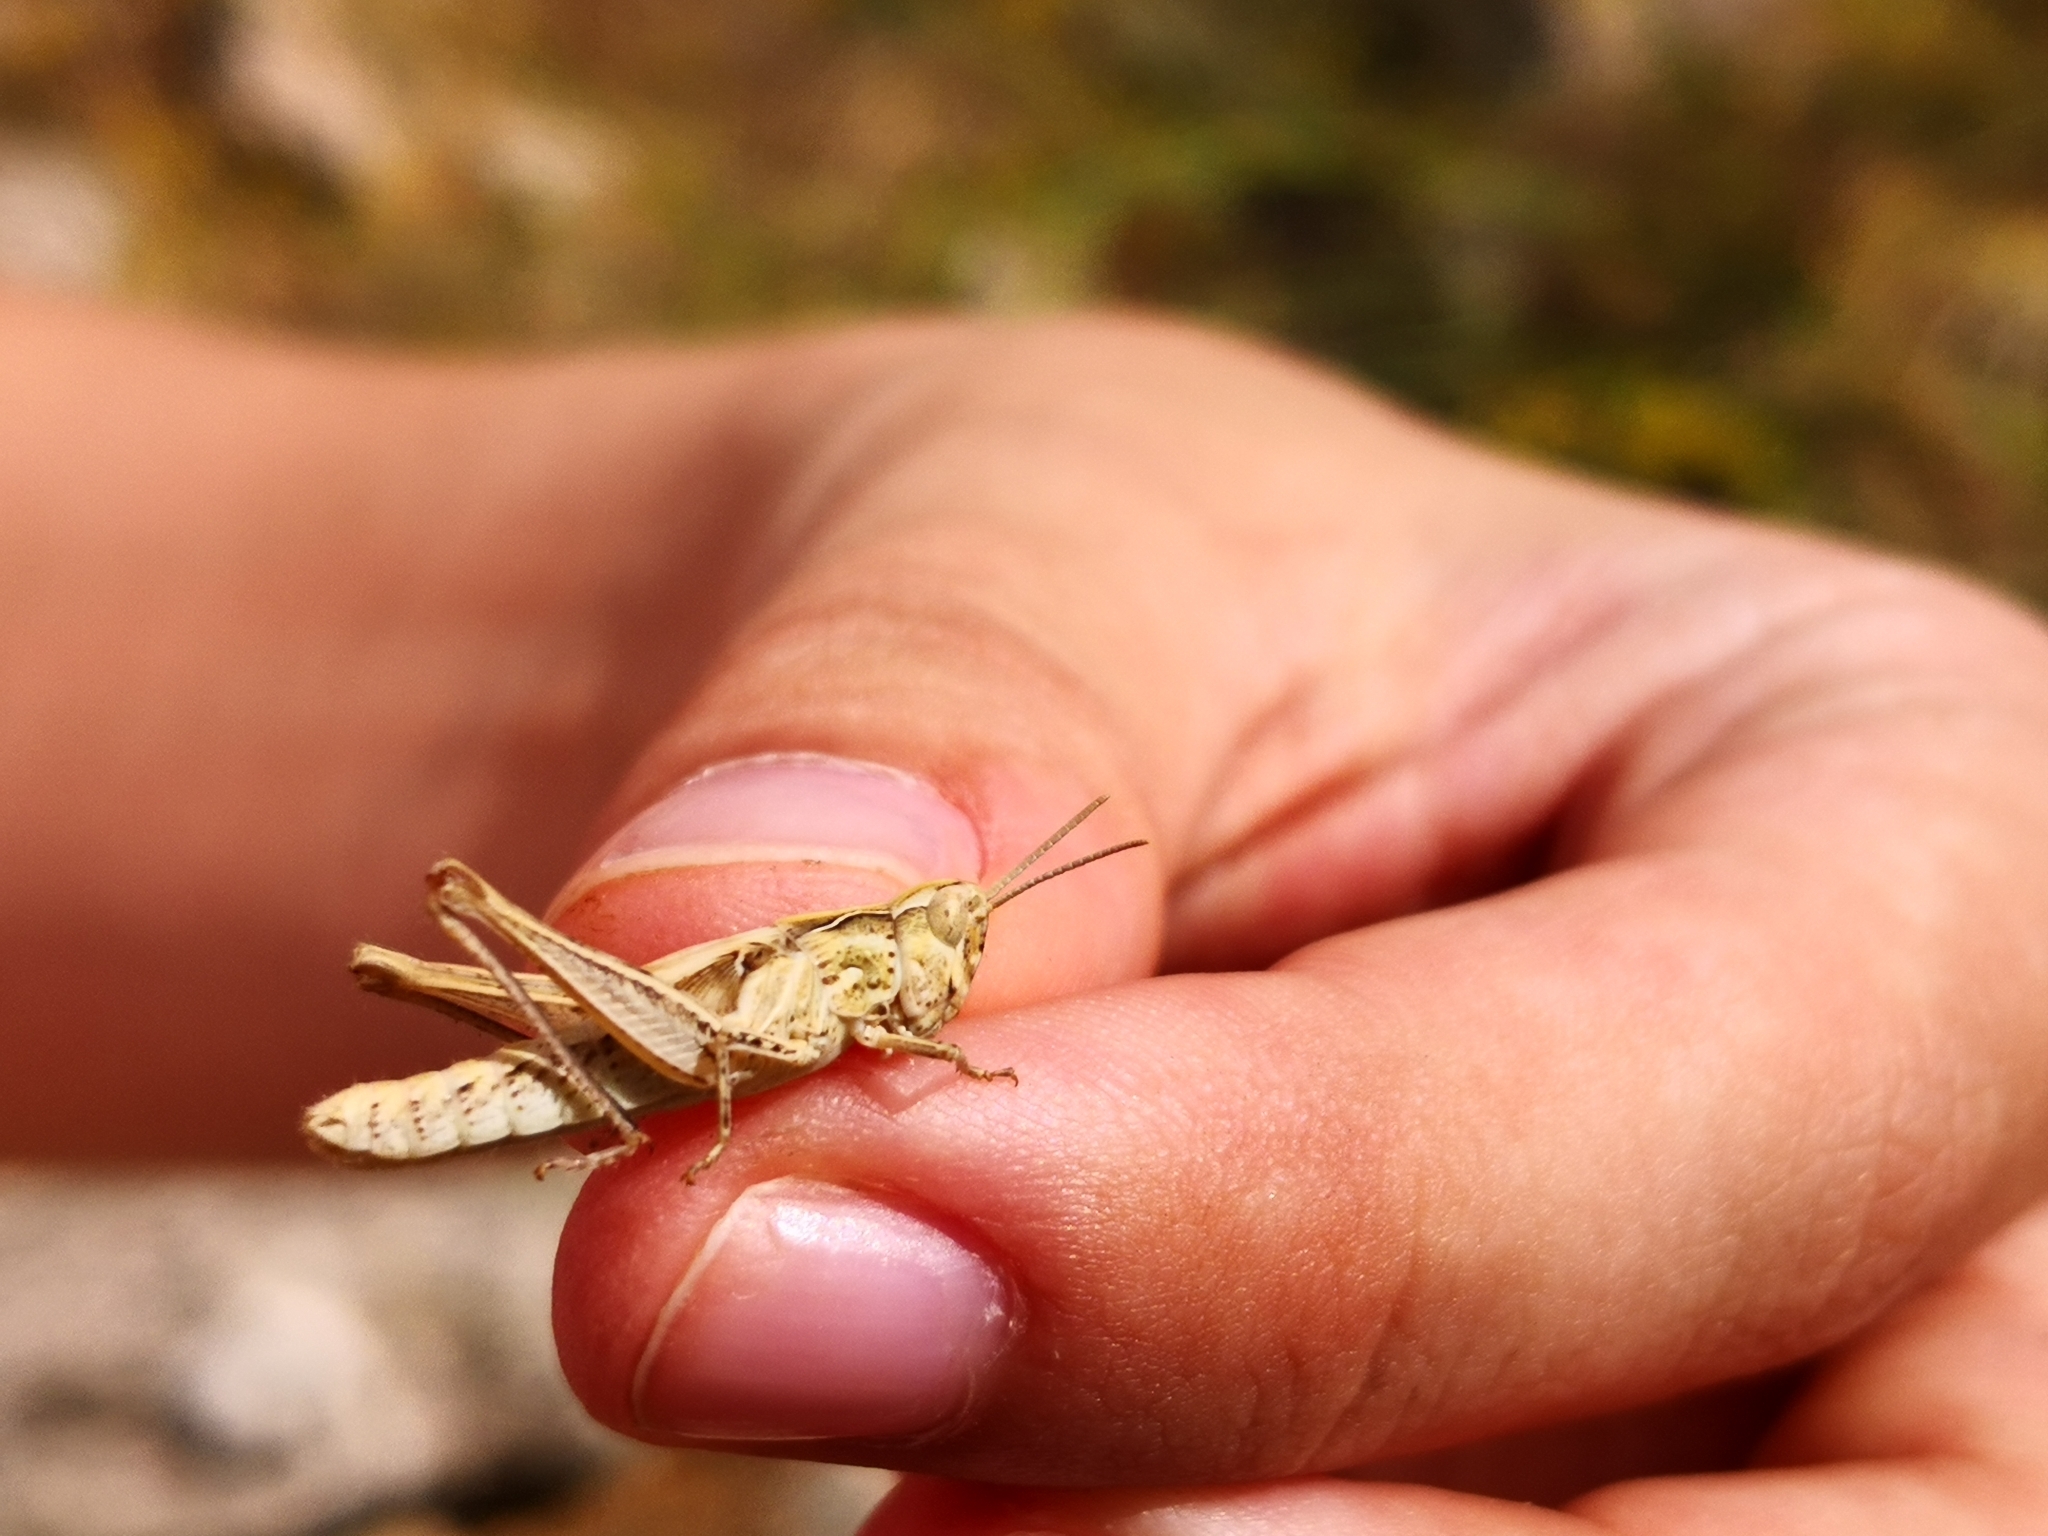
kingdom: Animalia
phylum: Arthropoda
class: Insecta
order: Orthoptera
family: Acrididae
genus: Chorthippus
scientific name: Chorthippus maritimus
